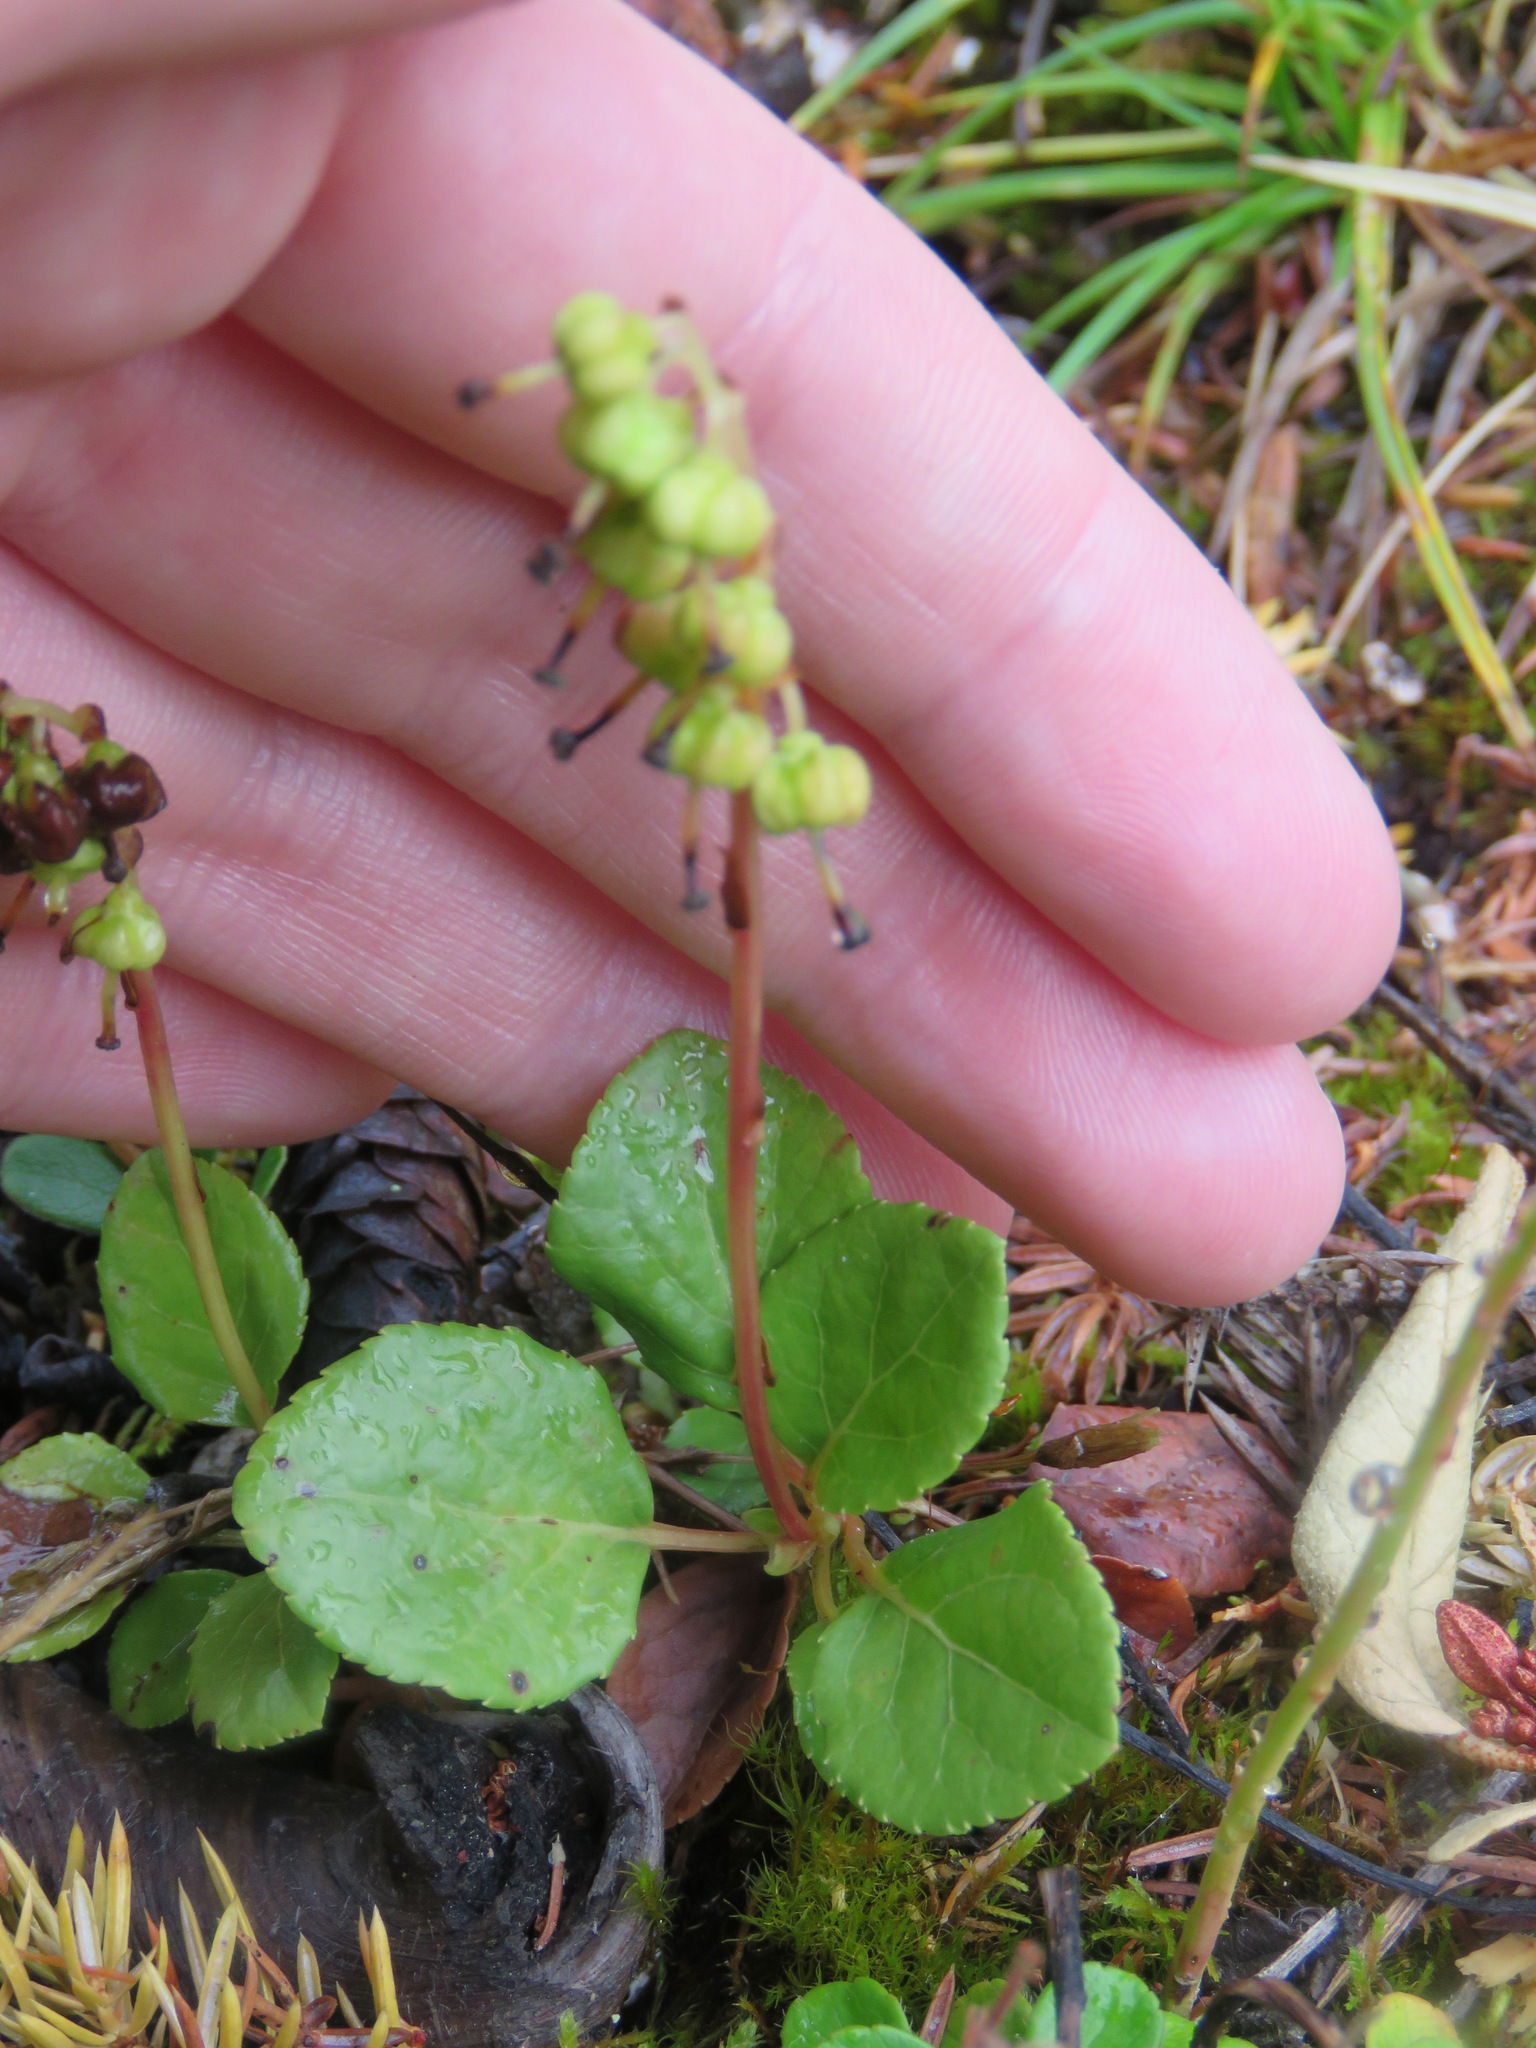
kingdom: Plantae
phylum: Tracheophyta
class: Magnoliopsida
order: Ericales
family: Ericaceae
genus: Orthilia
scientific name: Orthilia secunda
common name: One-sided orthilia
